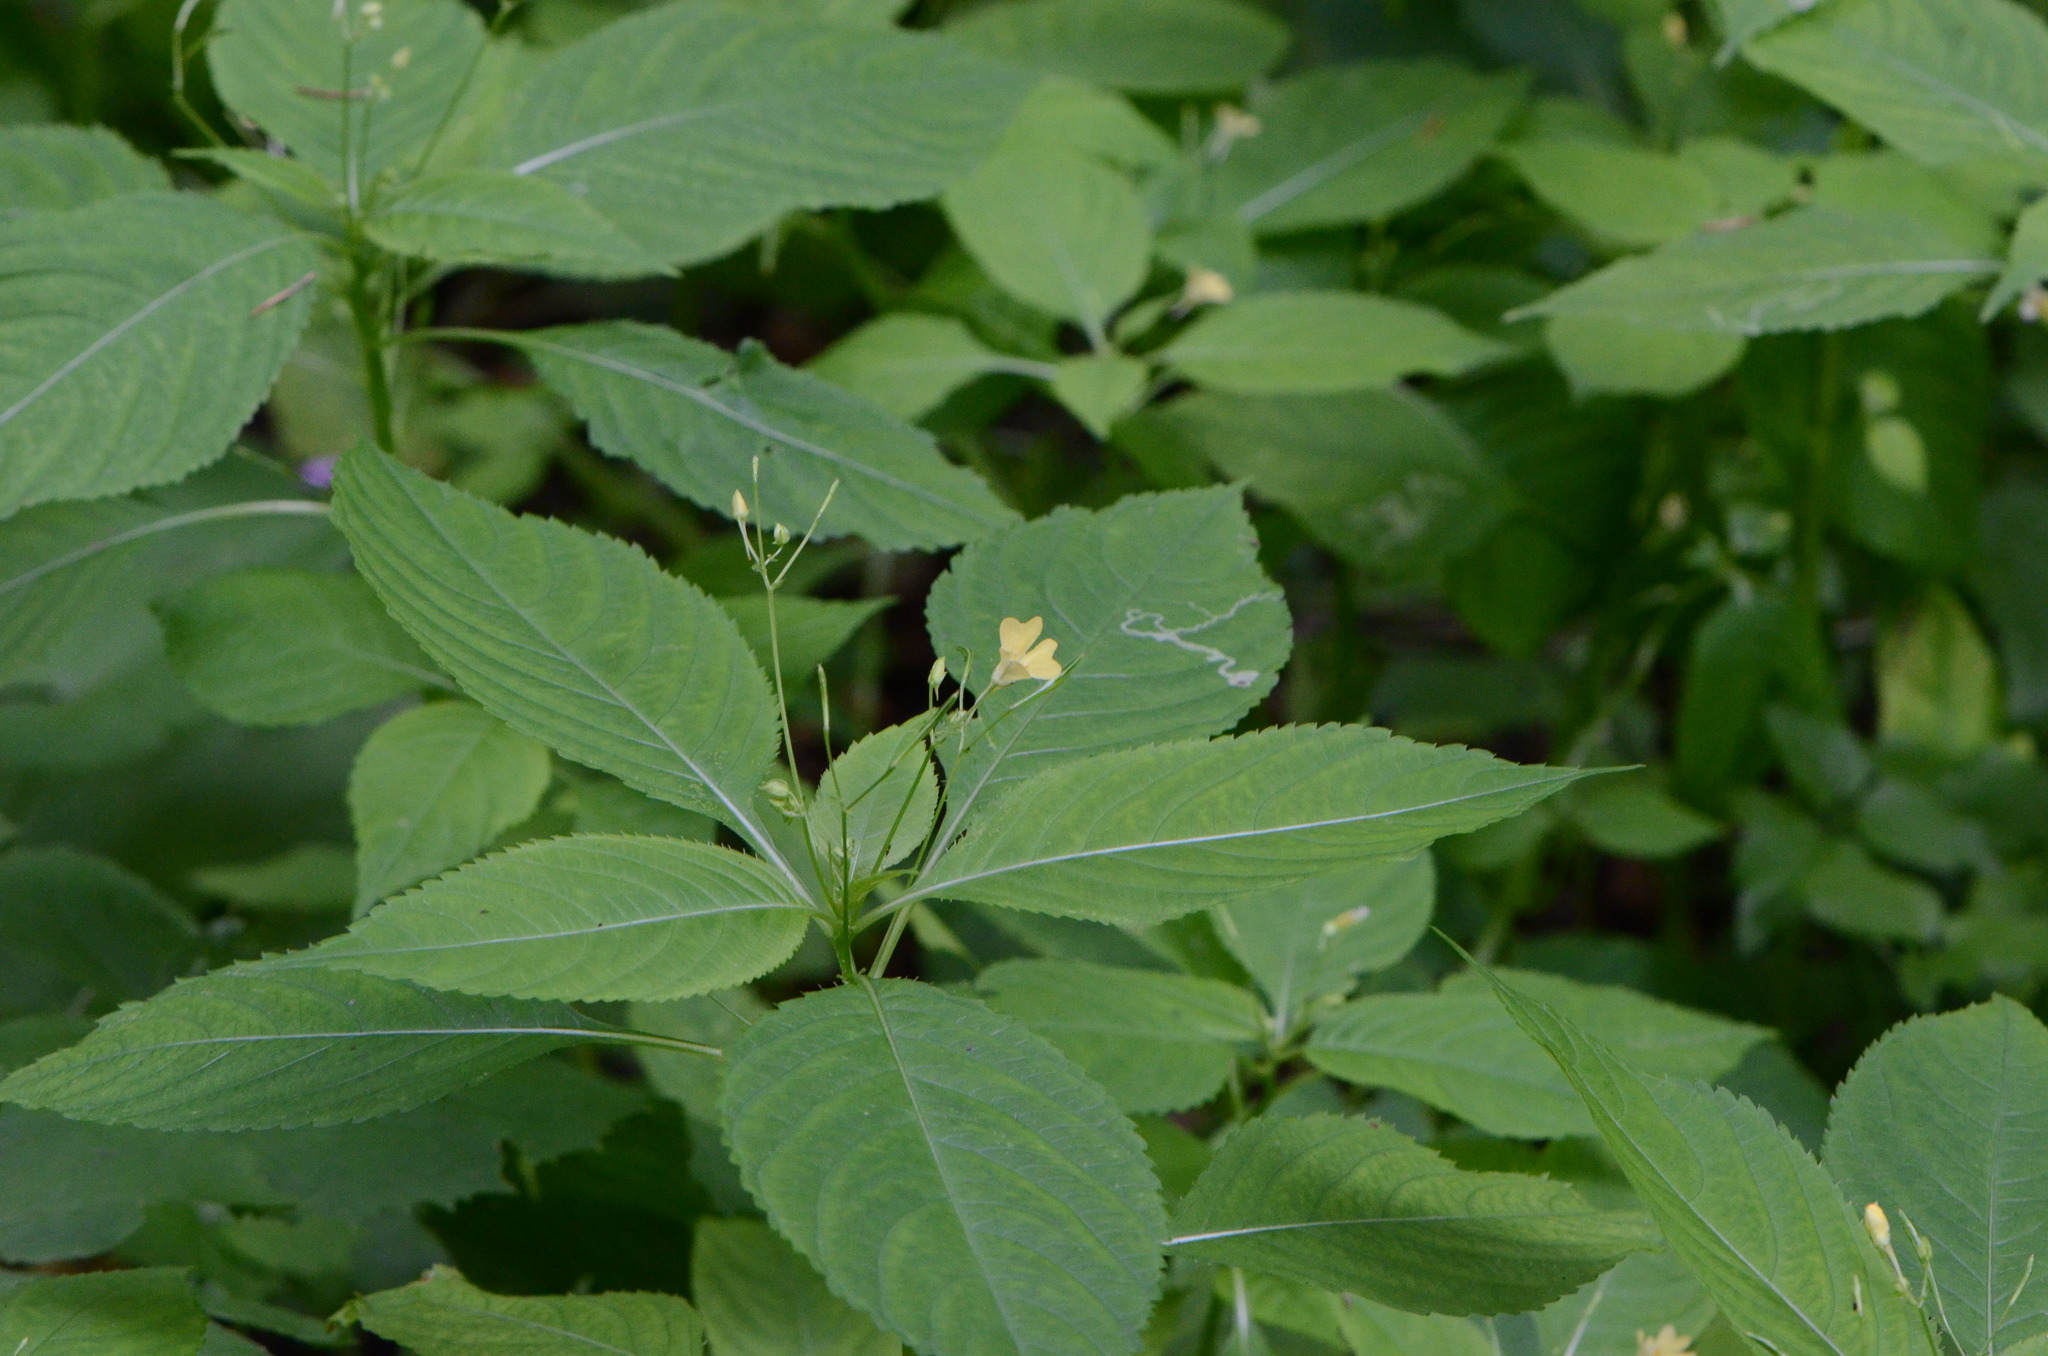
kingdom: Plantae
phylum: Tracheophyta
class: Magnoliopsida
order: Ericales
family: Balsaminaceae
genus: Impatiens
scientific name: Impatiens parviflora
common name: Small balsam
